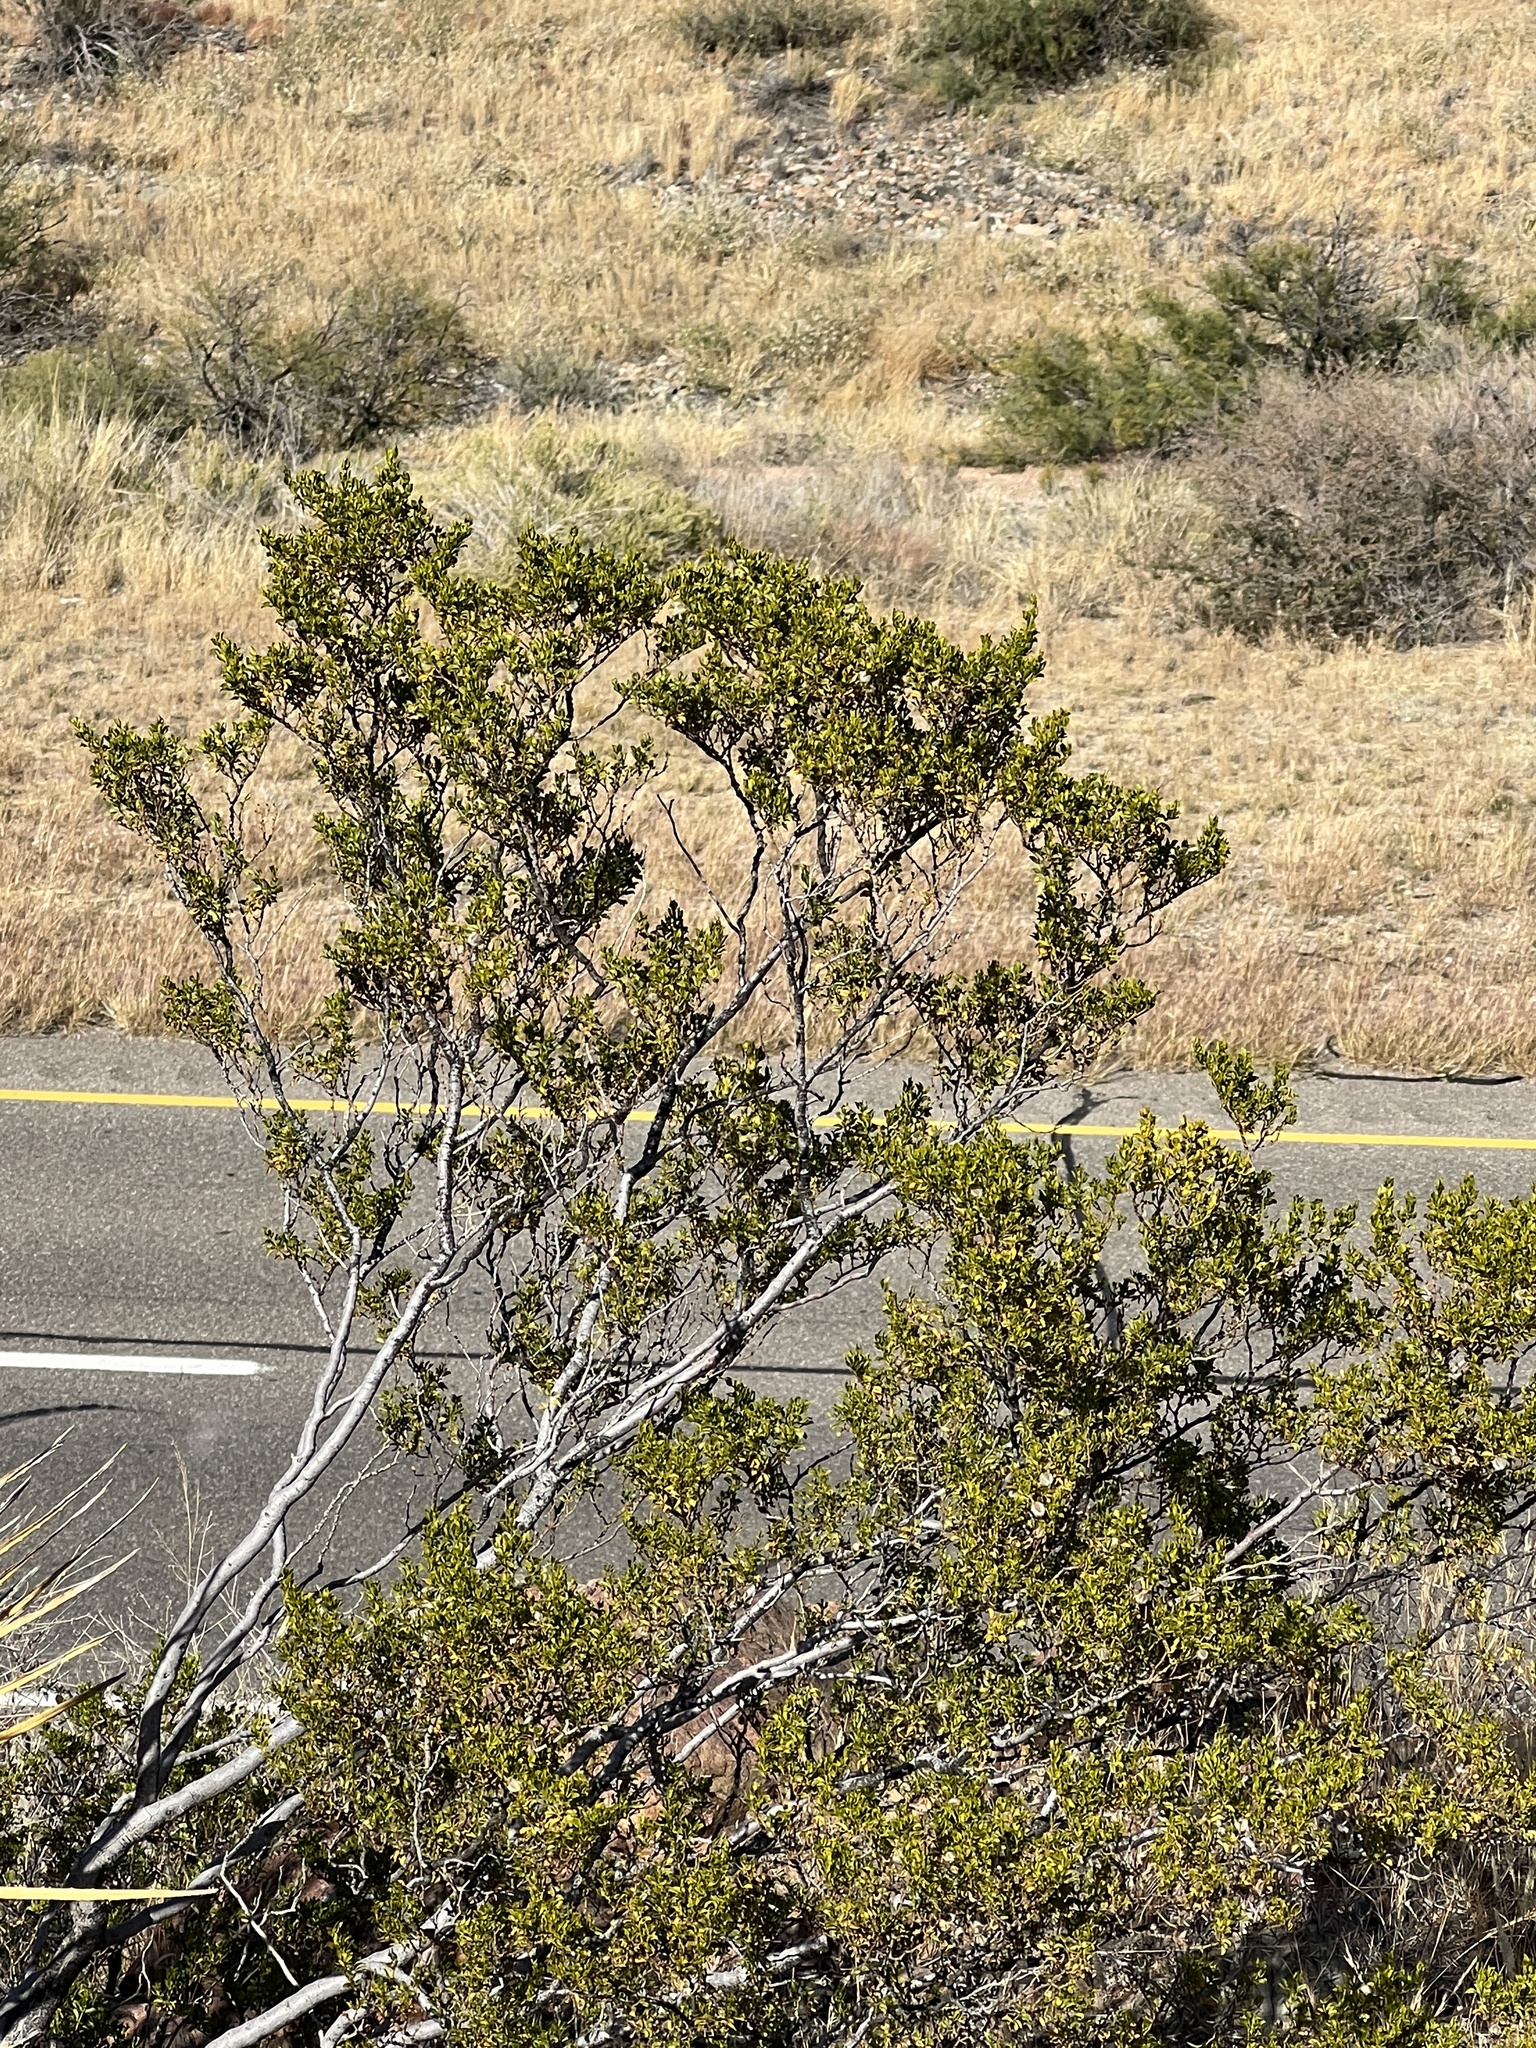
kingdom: Plantae
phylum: Tracheophyta
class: Magnoliopsida
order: Zygophyllales
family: Zygophyllaceae
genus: Larrea
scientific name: Larrea tridentata
